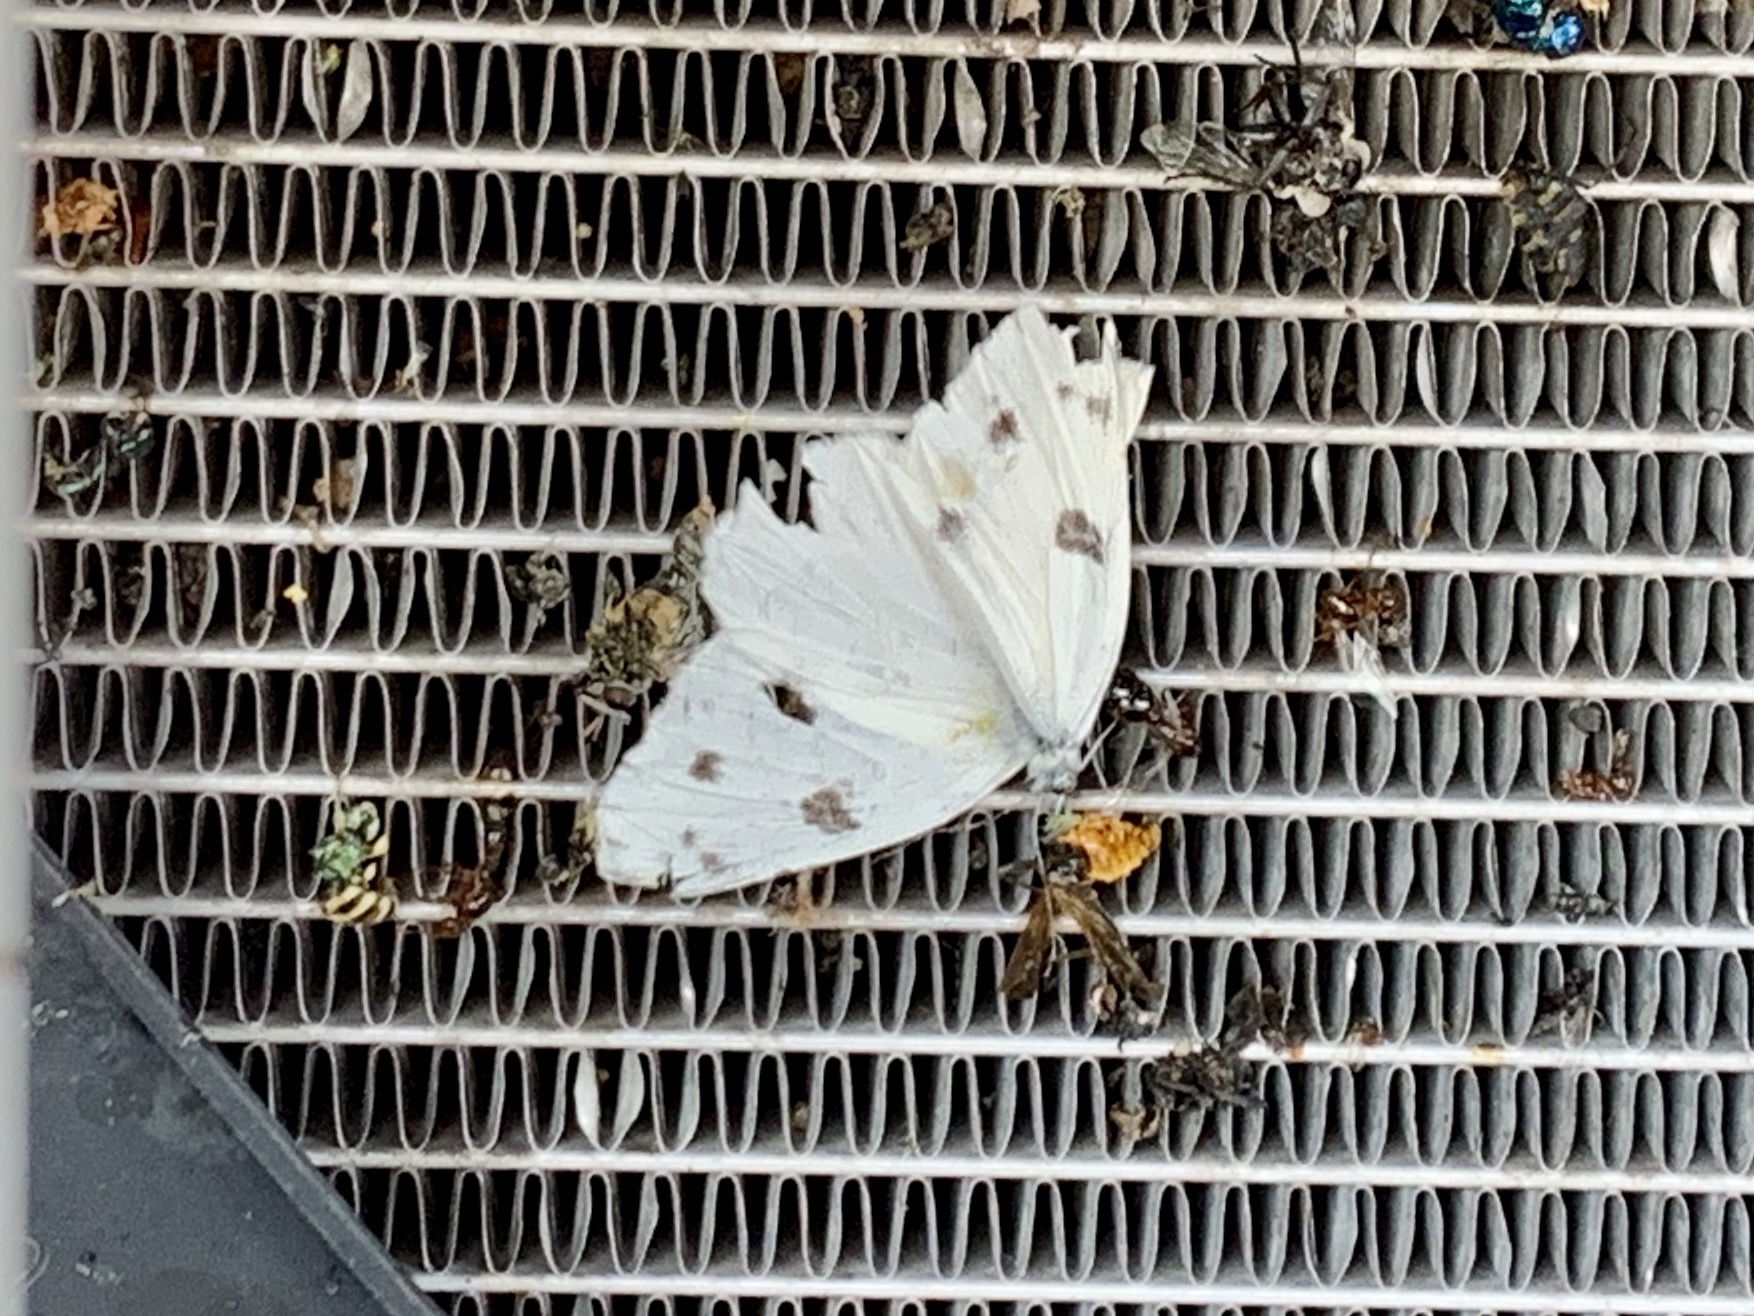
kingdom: Animalia
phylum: Arthropoda
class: Insecta
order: Lepidoptera
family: Pieridae
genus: Pontia
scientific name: Pontia protodice
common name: Checkered white
